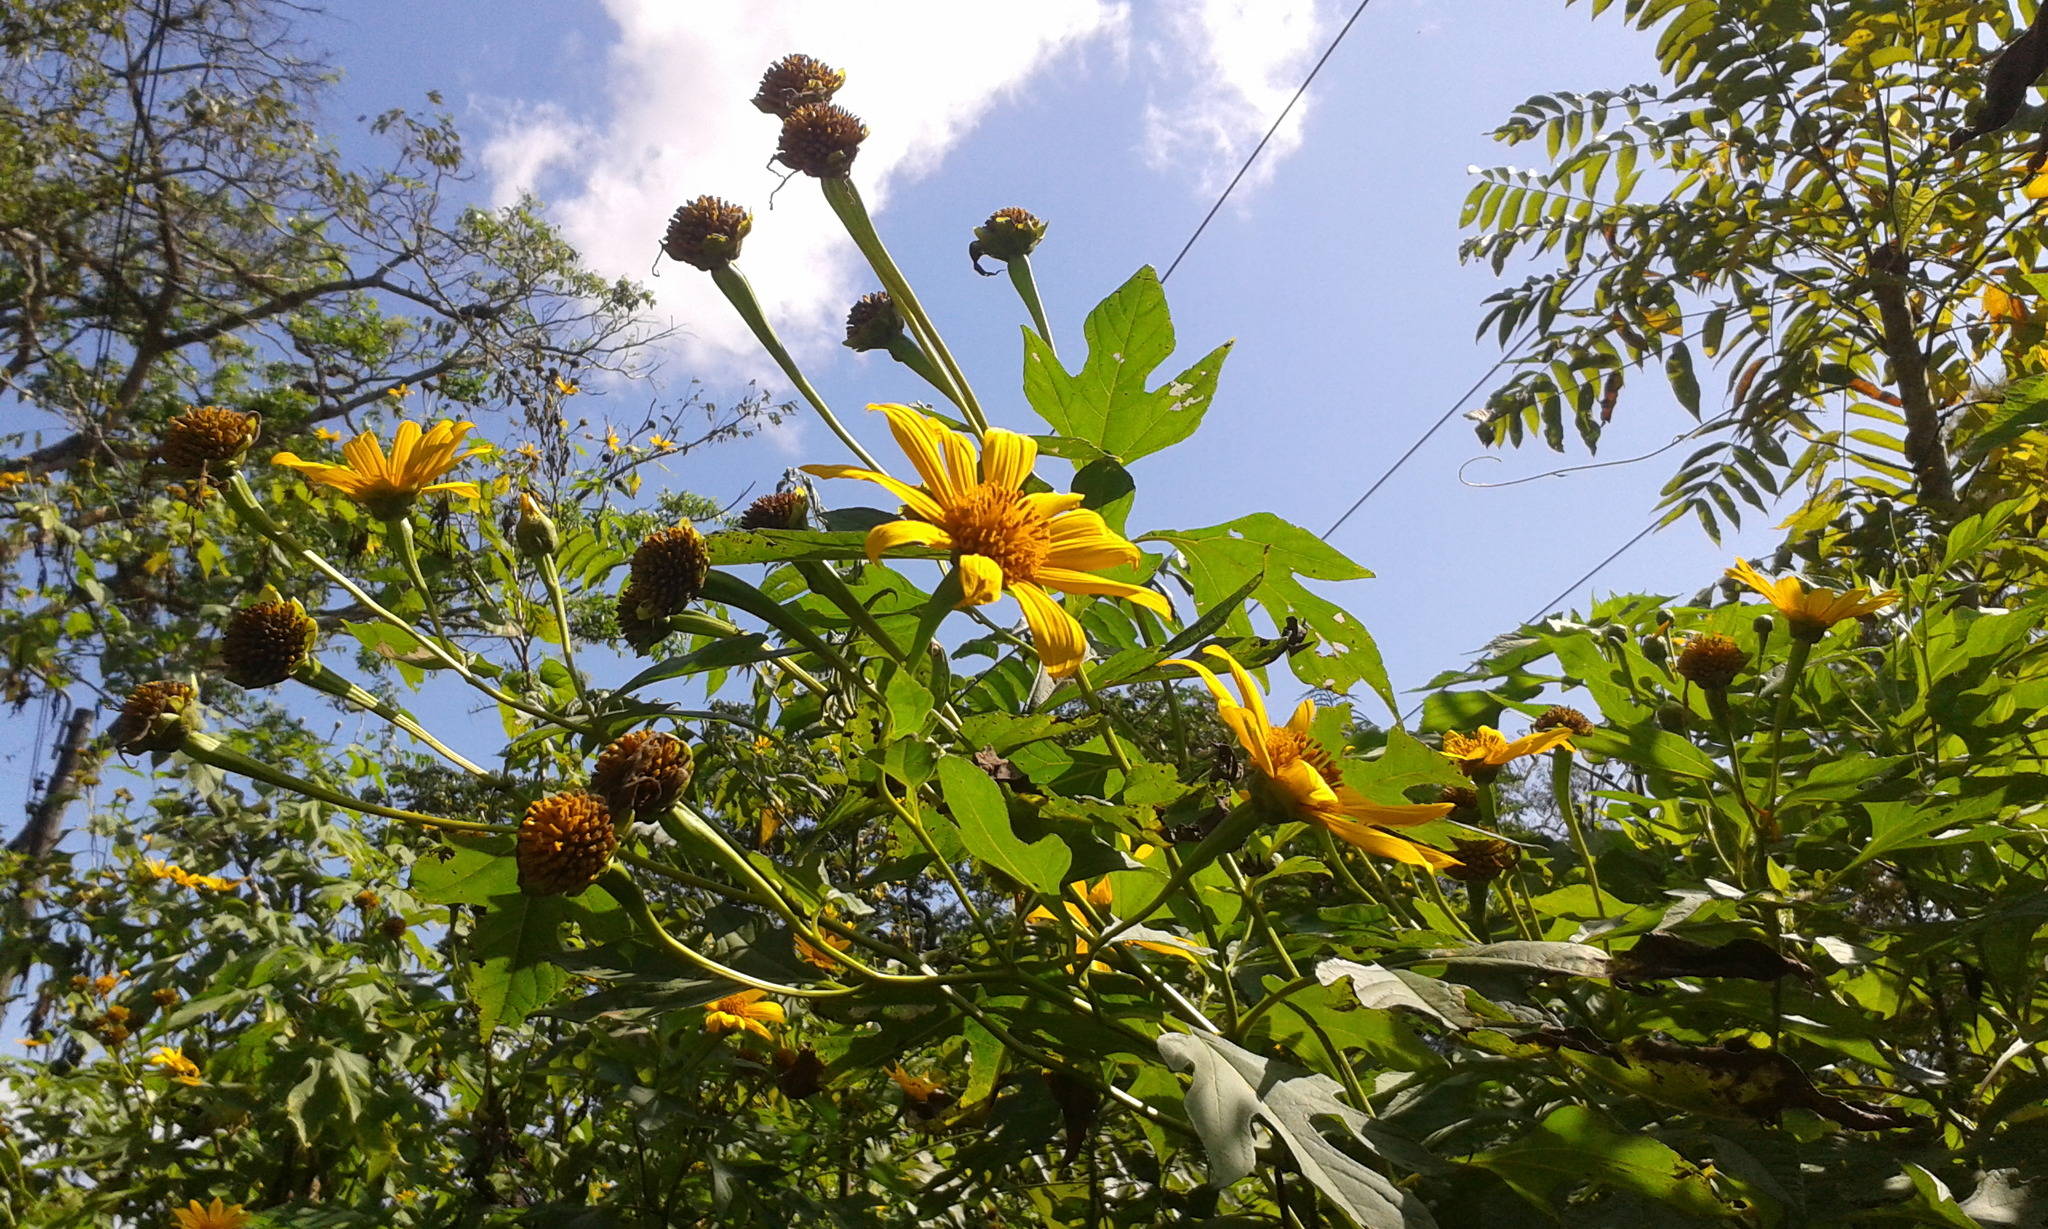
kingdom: Plantae
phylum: Tracheophyta
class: Magnoliopsida
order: Asterales
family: Asteraceae
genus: Tithonia
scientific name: Tithonia diversifolia
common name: Tree marigold
